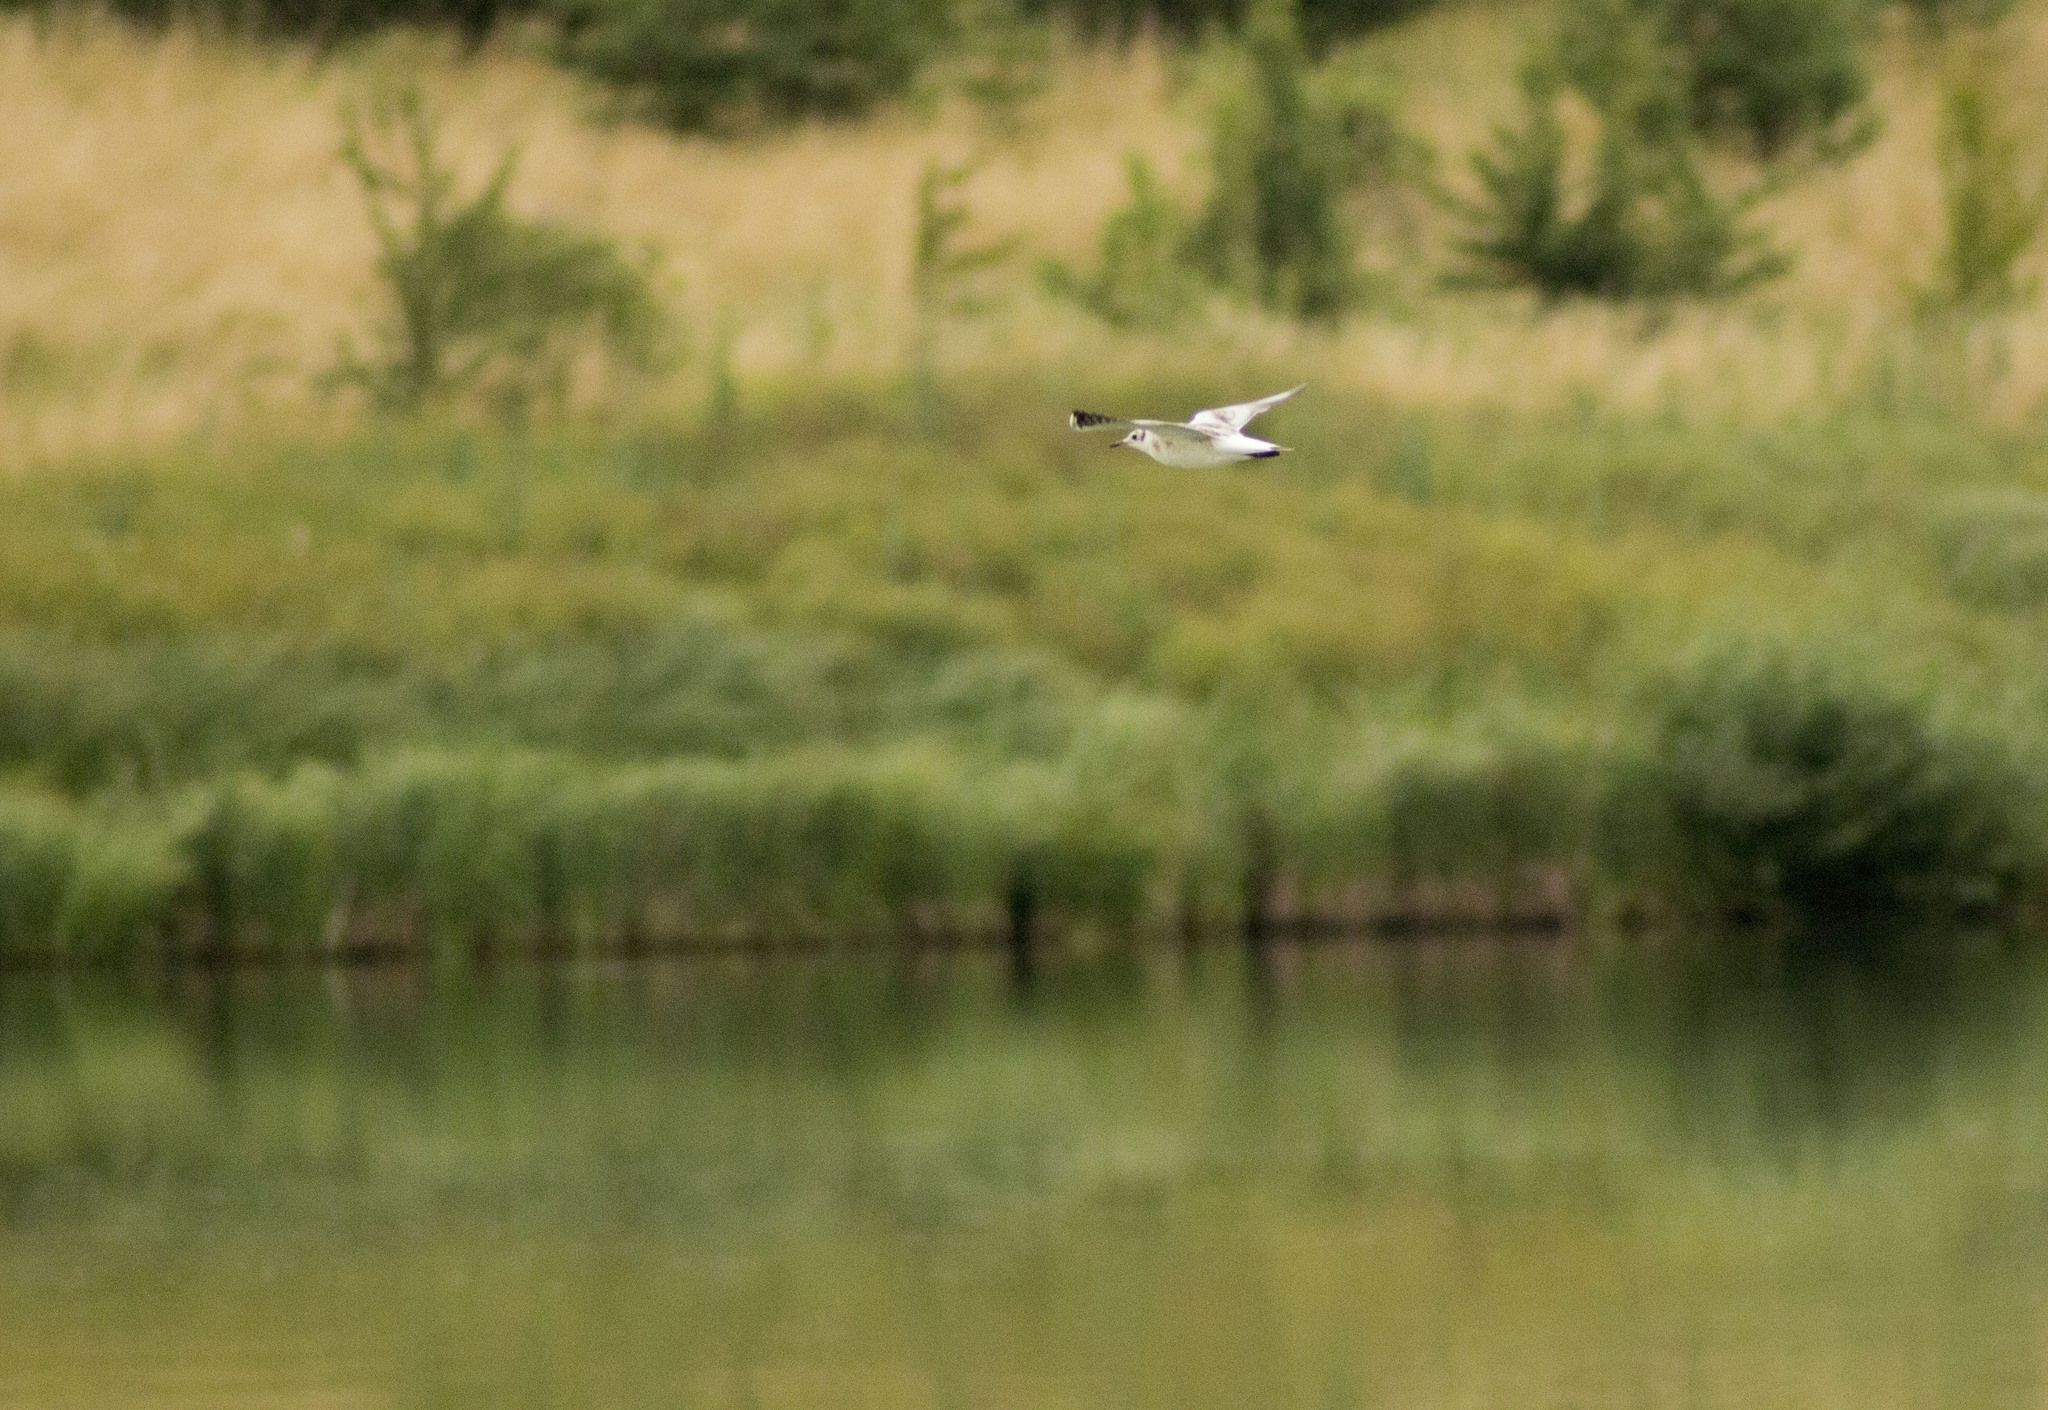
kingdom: Animalia
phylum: Chordata
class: Aves
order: Charadriiformes
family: Laridae
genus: Chroicocephalus
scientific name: Chroicocephalus ridibundus
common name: Black-headed gull
